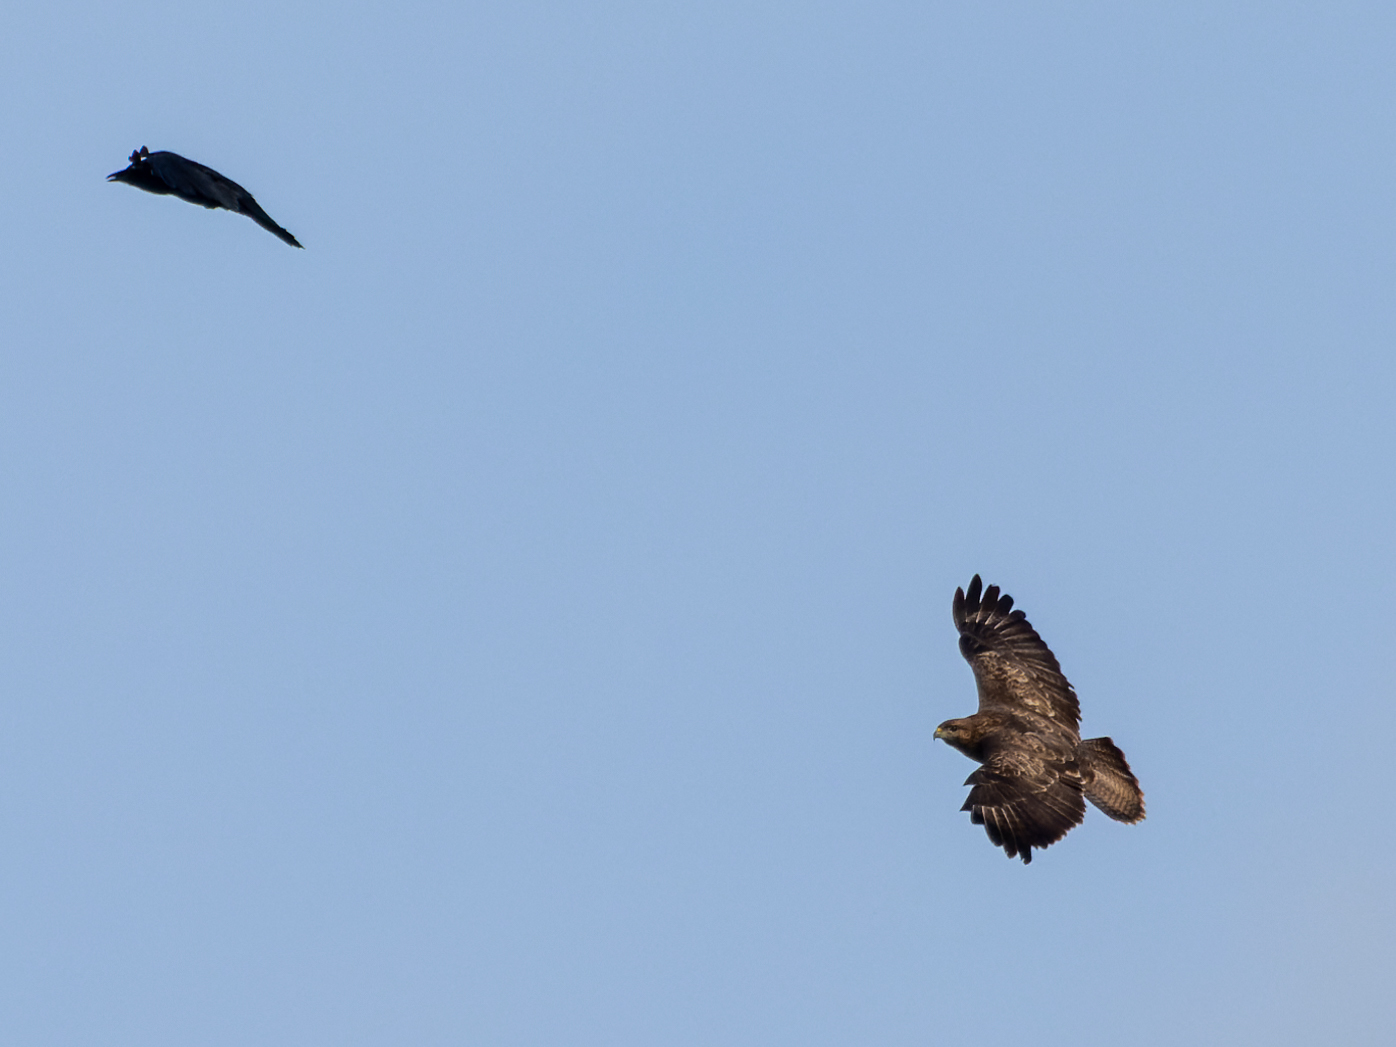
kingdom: Animalia
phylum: Chordata
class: Aves
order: Accipitriformes
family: Accipitridae
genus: Buteo
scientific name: Buteo buteo
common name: Common buzzard
